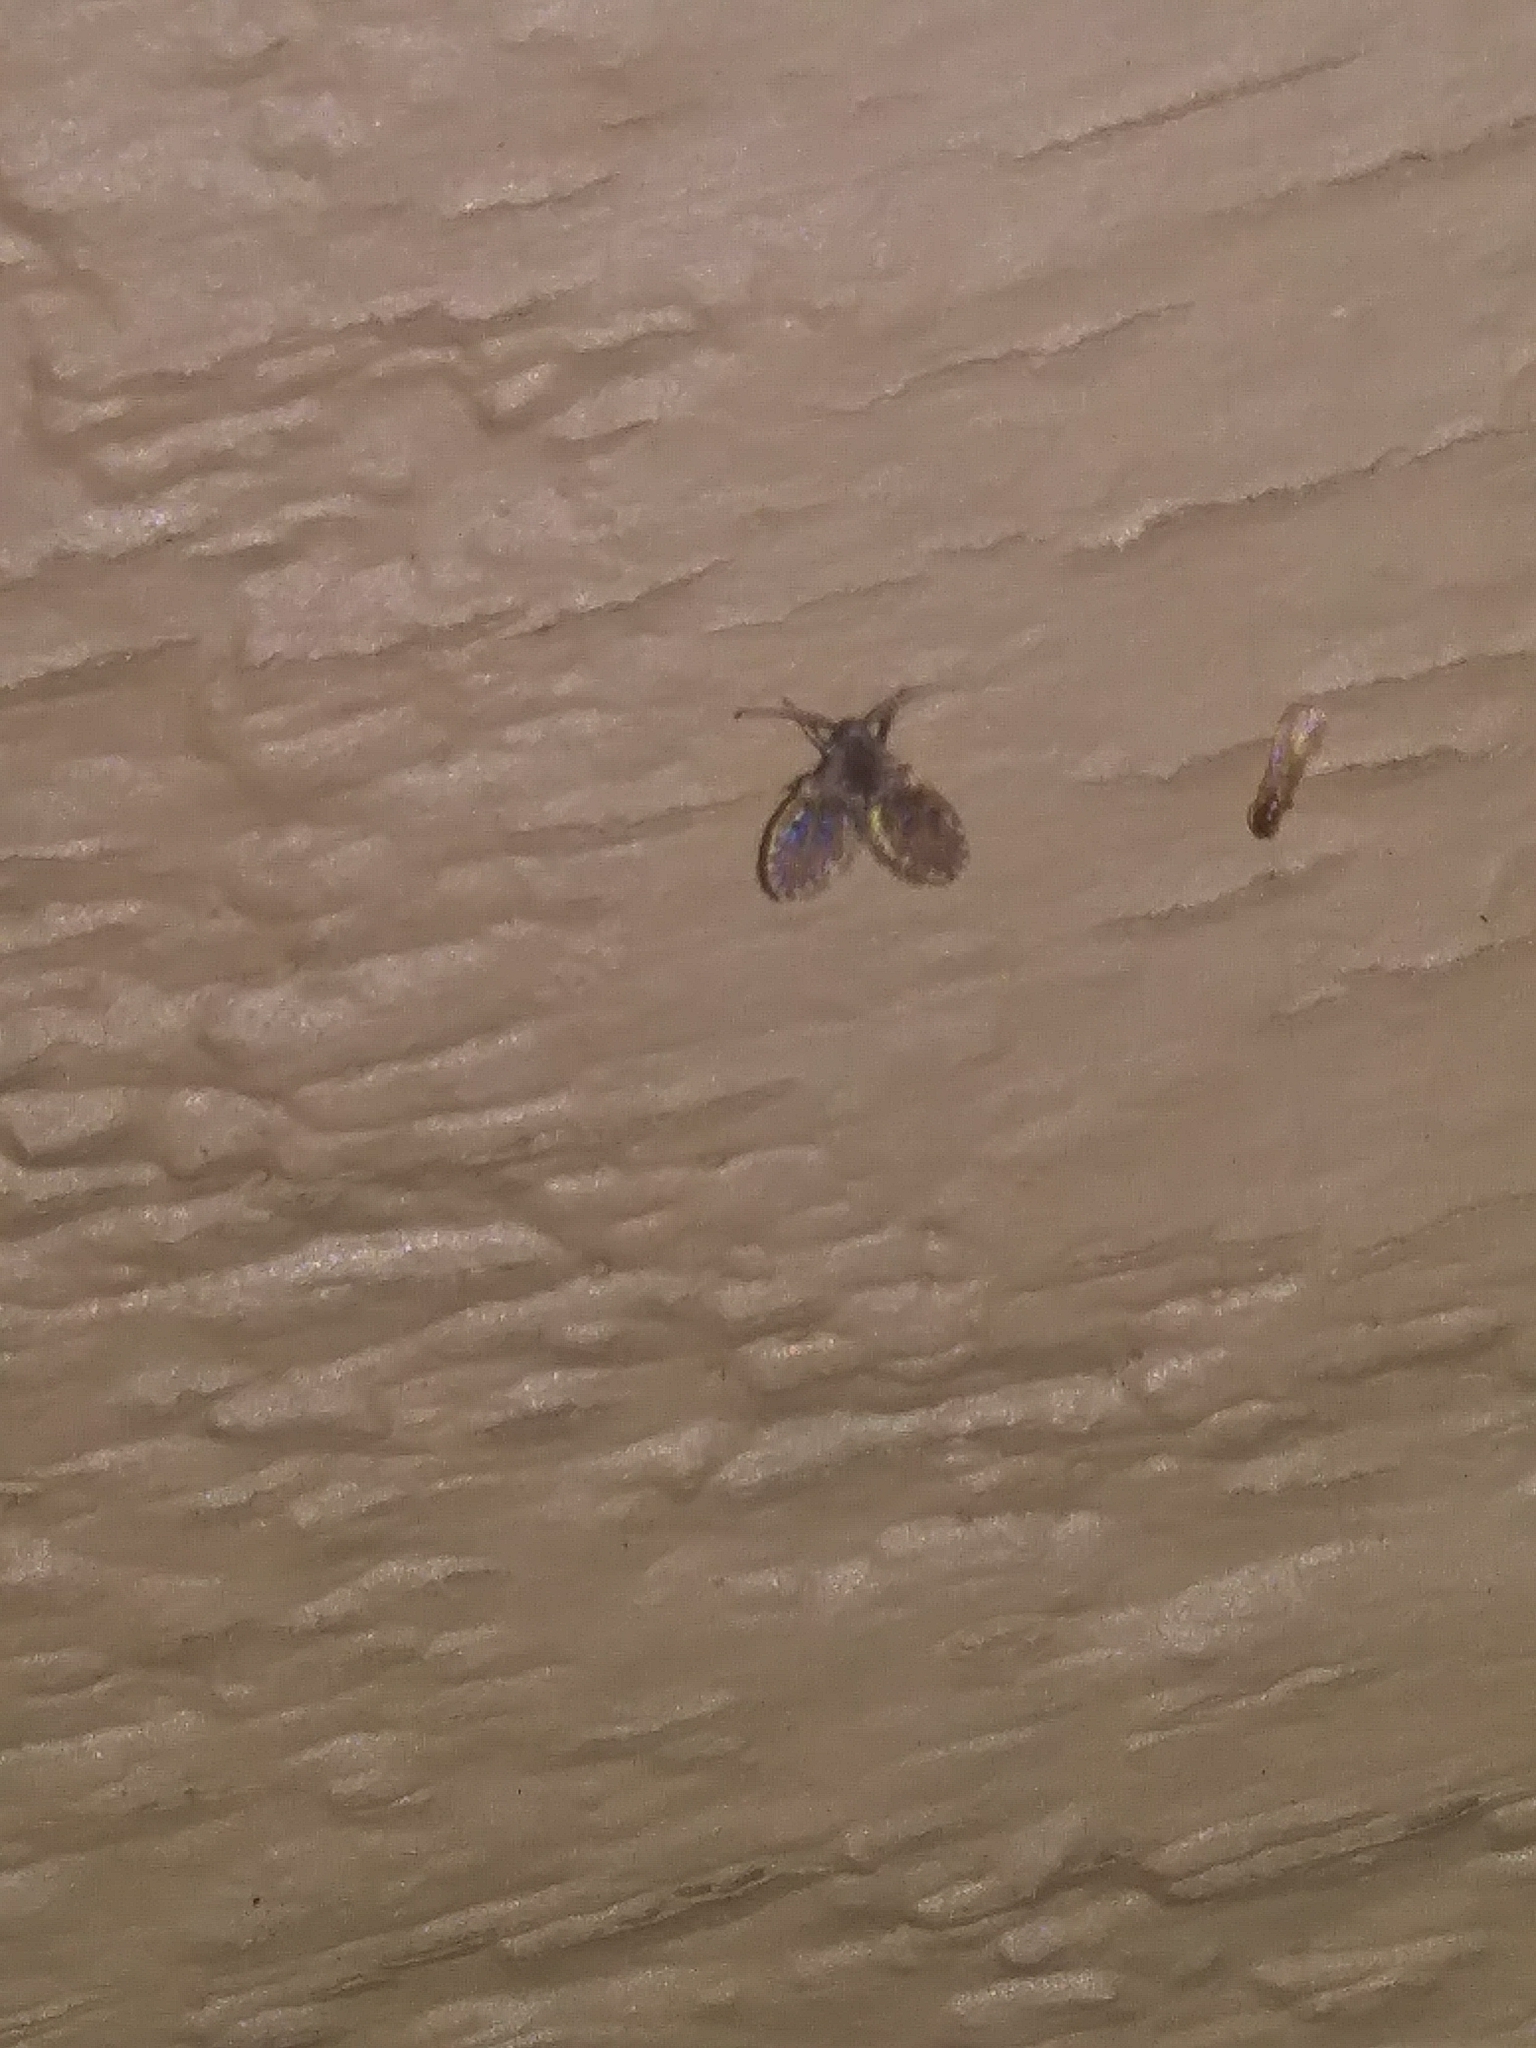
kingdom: Animalia
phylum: Arthropoda
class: Insecta
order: Diptera
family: Psychodidae
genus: Clogmia
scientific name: Clogmia albipunctatus
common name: White-spotted moth fly
